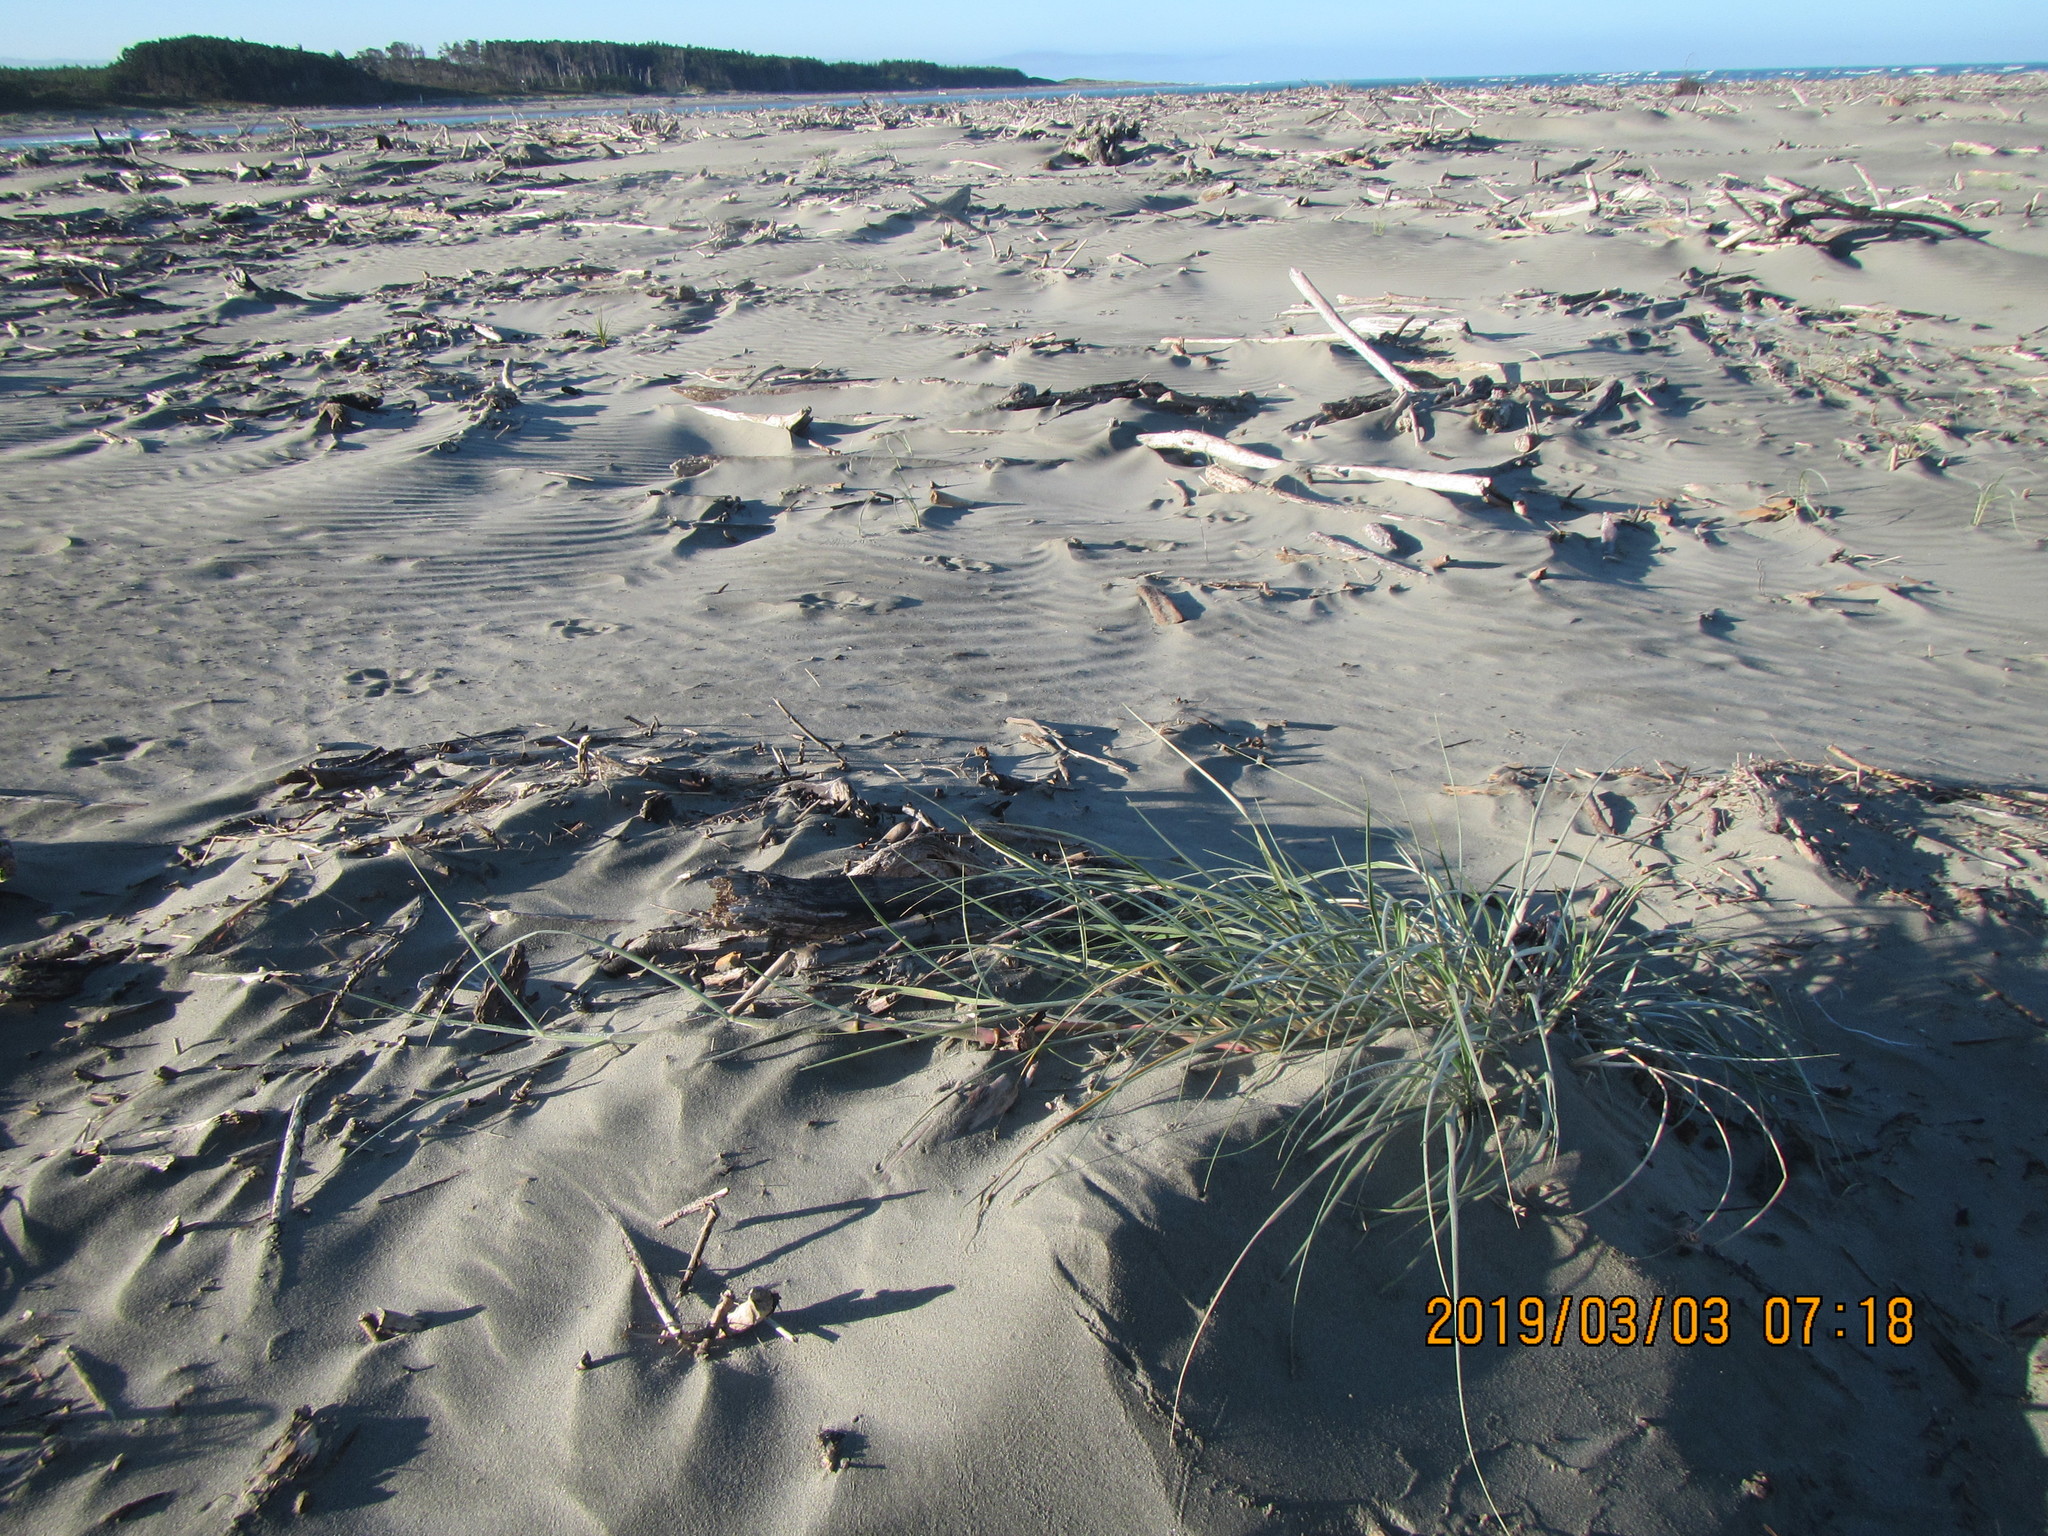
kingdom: Plantae
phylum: Tracheophyta
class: Liliopsida
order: Poales
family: Poaceae
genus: Spinifex
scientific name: Spinifex sericeus
